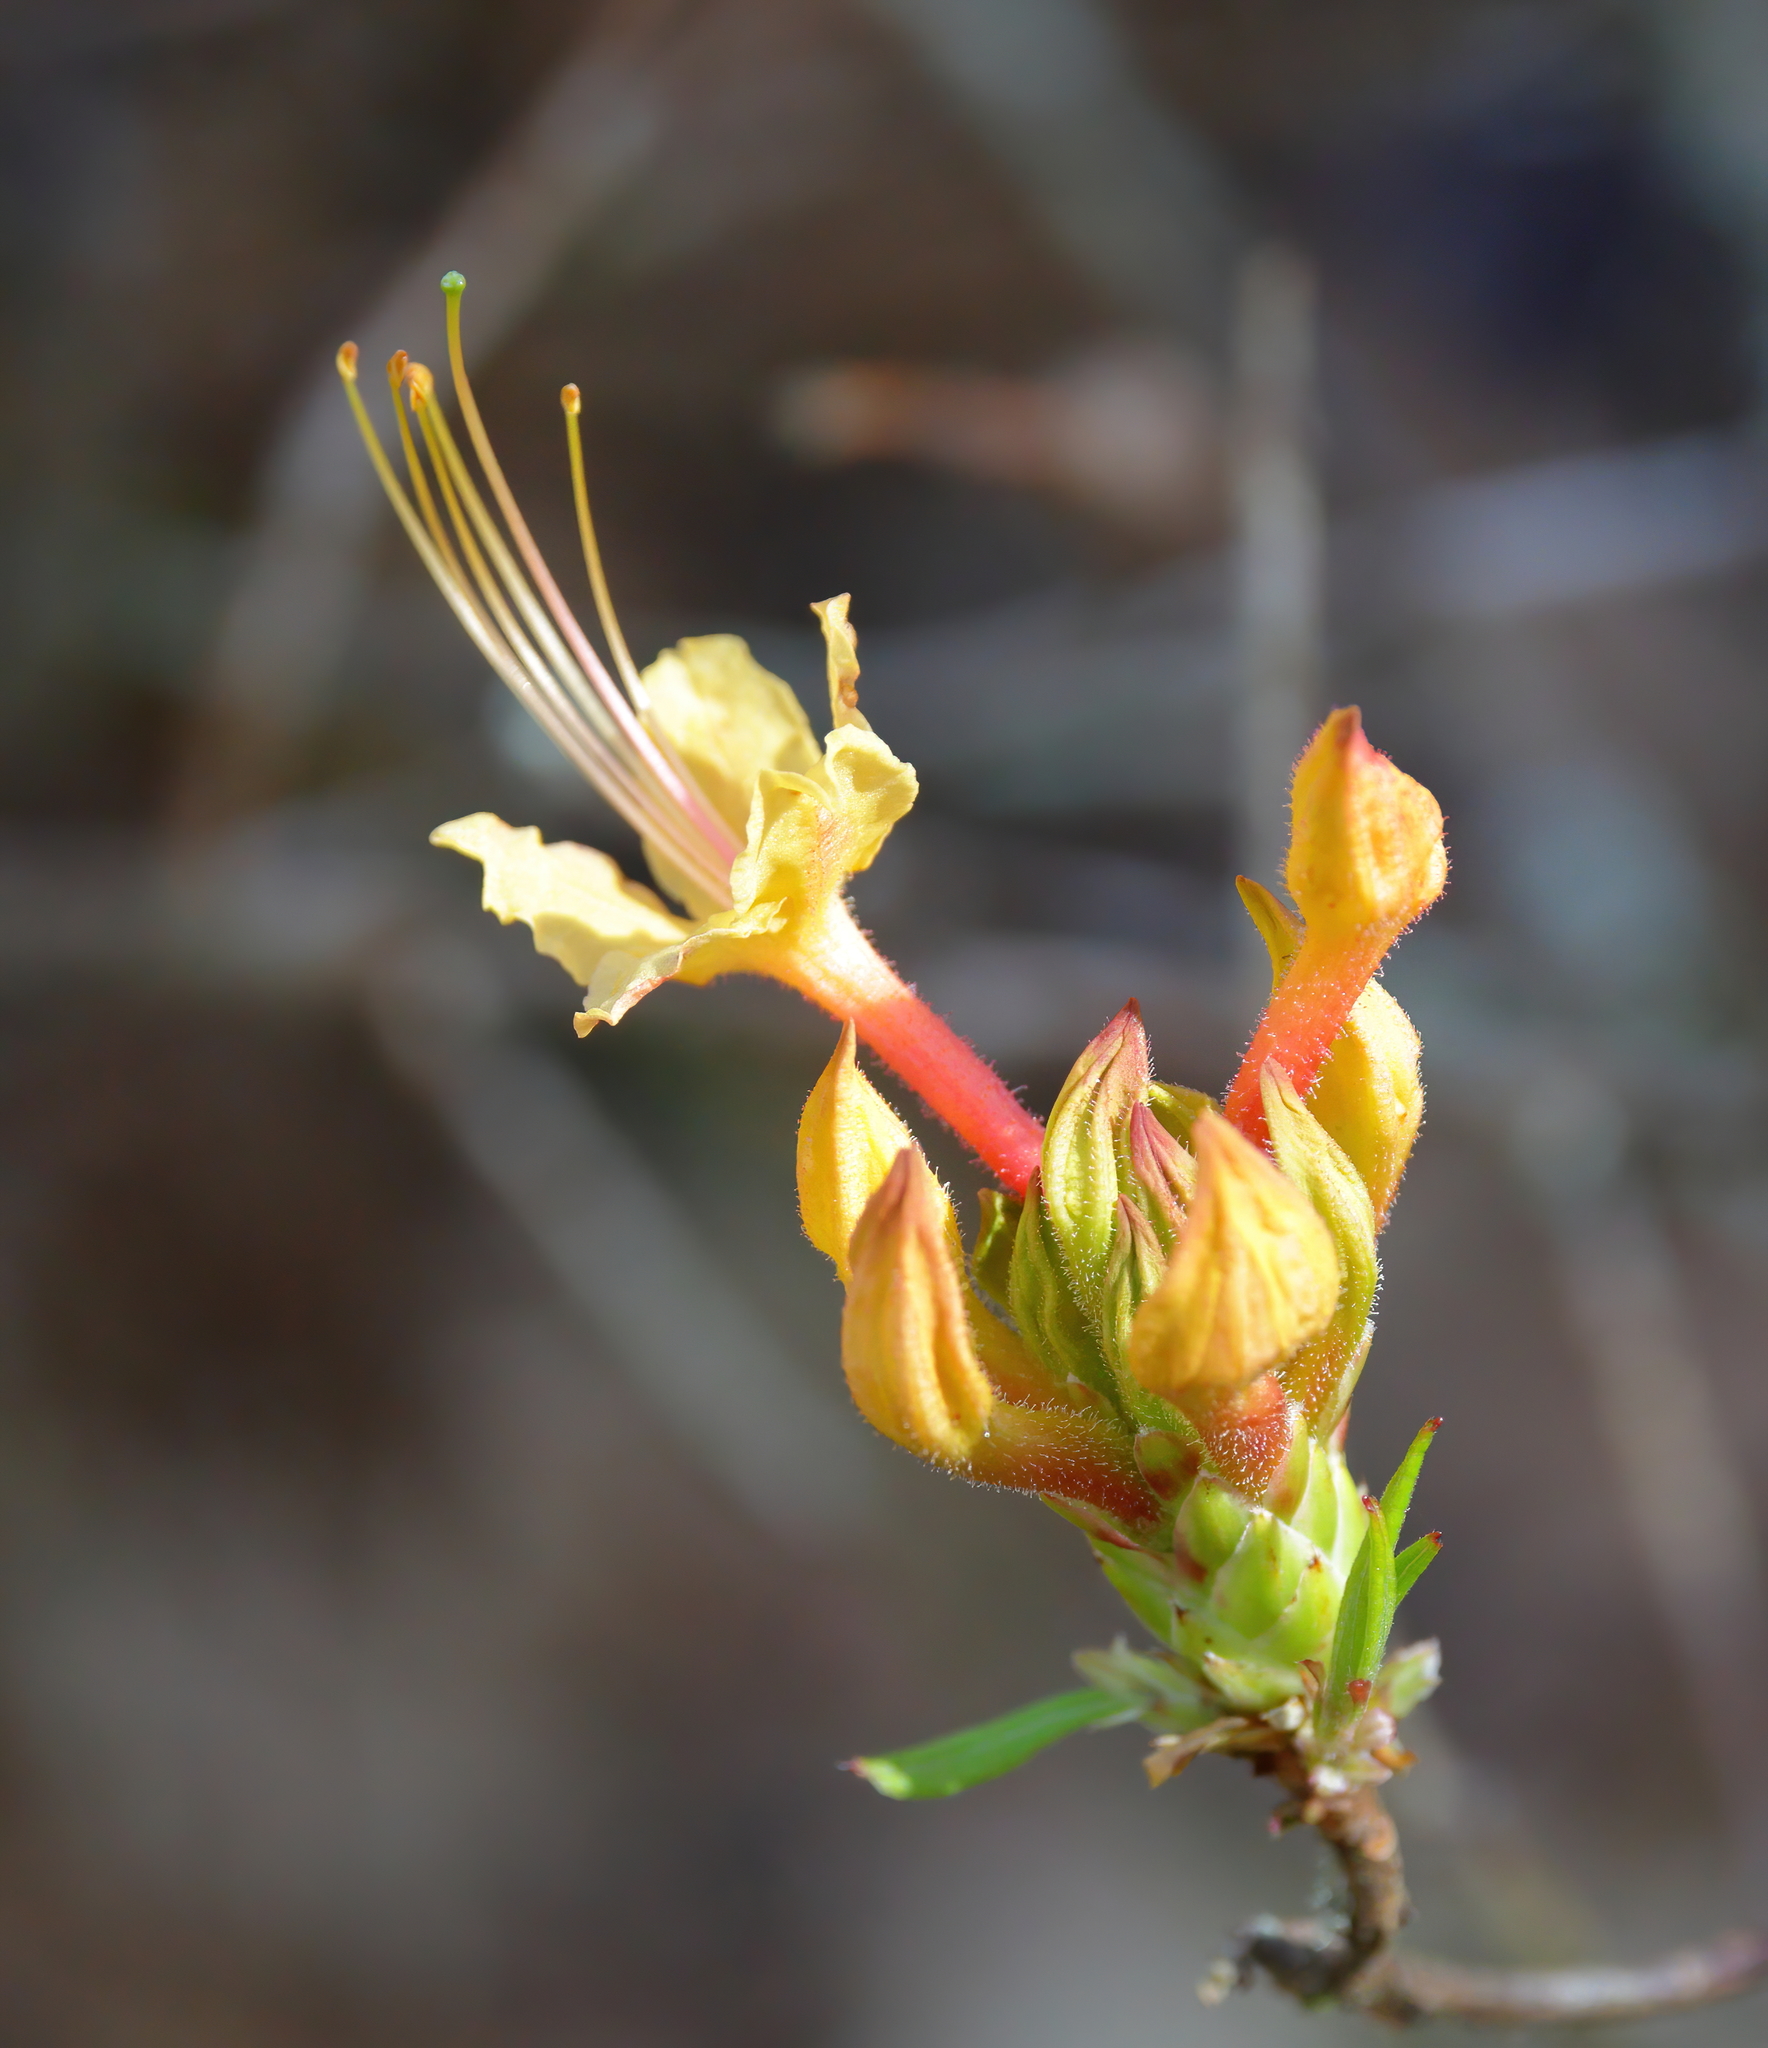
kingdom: Plantae
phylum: Tracheophyta
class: Magnoliopsida
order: Ericales
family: Ericaceae
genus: Rhododendron
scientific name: Rhododendron austrinum
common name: Florida azalea
